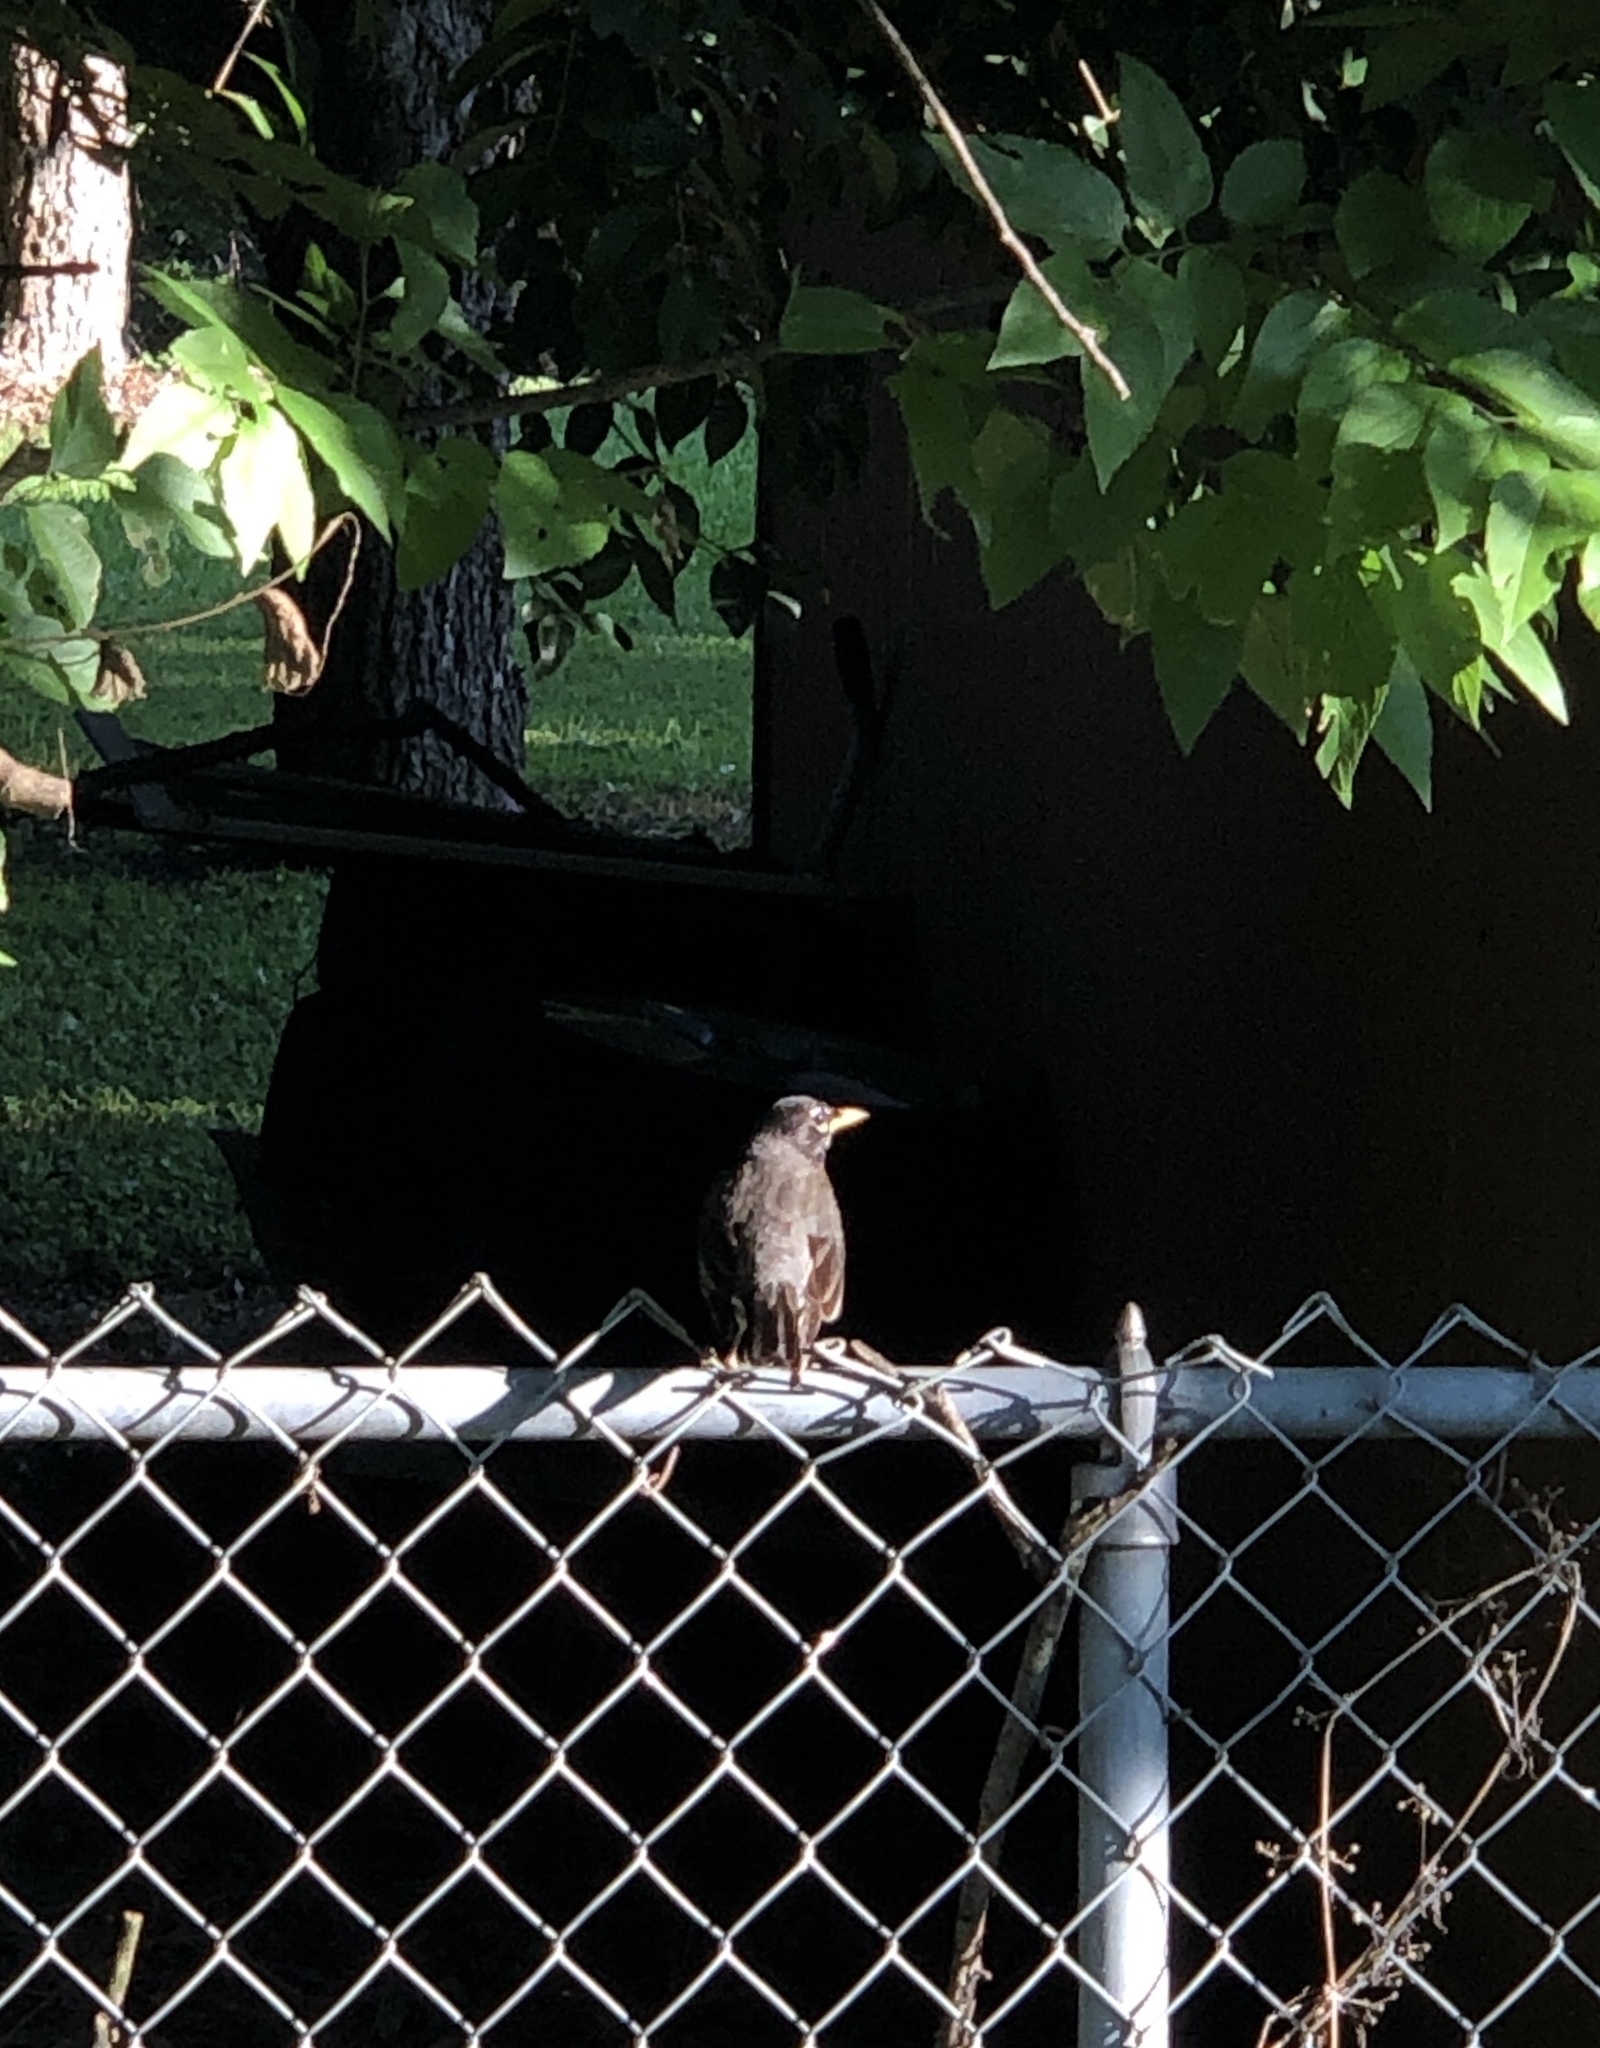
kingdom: Animalia
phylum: Chordata
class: Aves
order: Passeriformes
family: Turdidae
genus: Turdus
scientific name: Turdus migratorius
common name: American robin
